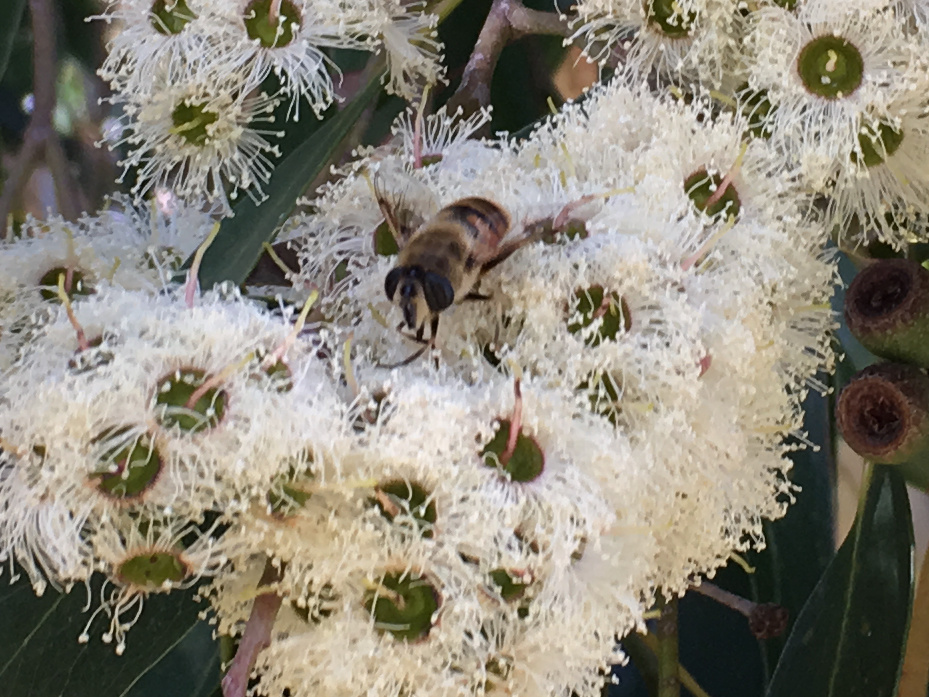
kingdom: Animalia
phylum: Arthropoda
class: Insecta
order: Diptera
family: Syrphidae
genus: Eristalis
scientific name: Eristalis tenax
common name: Drone fly
